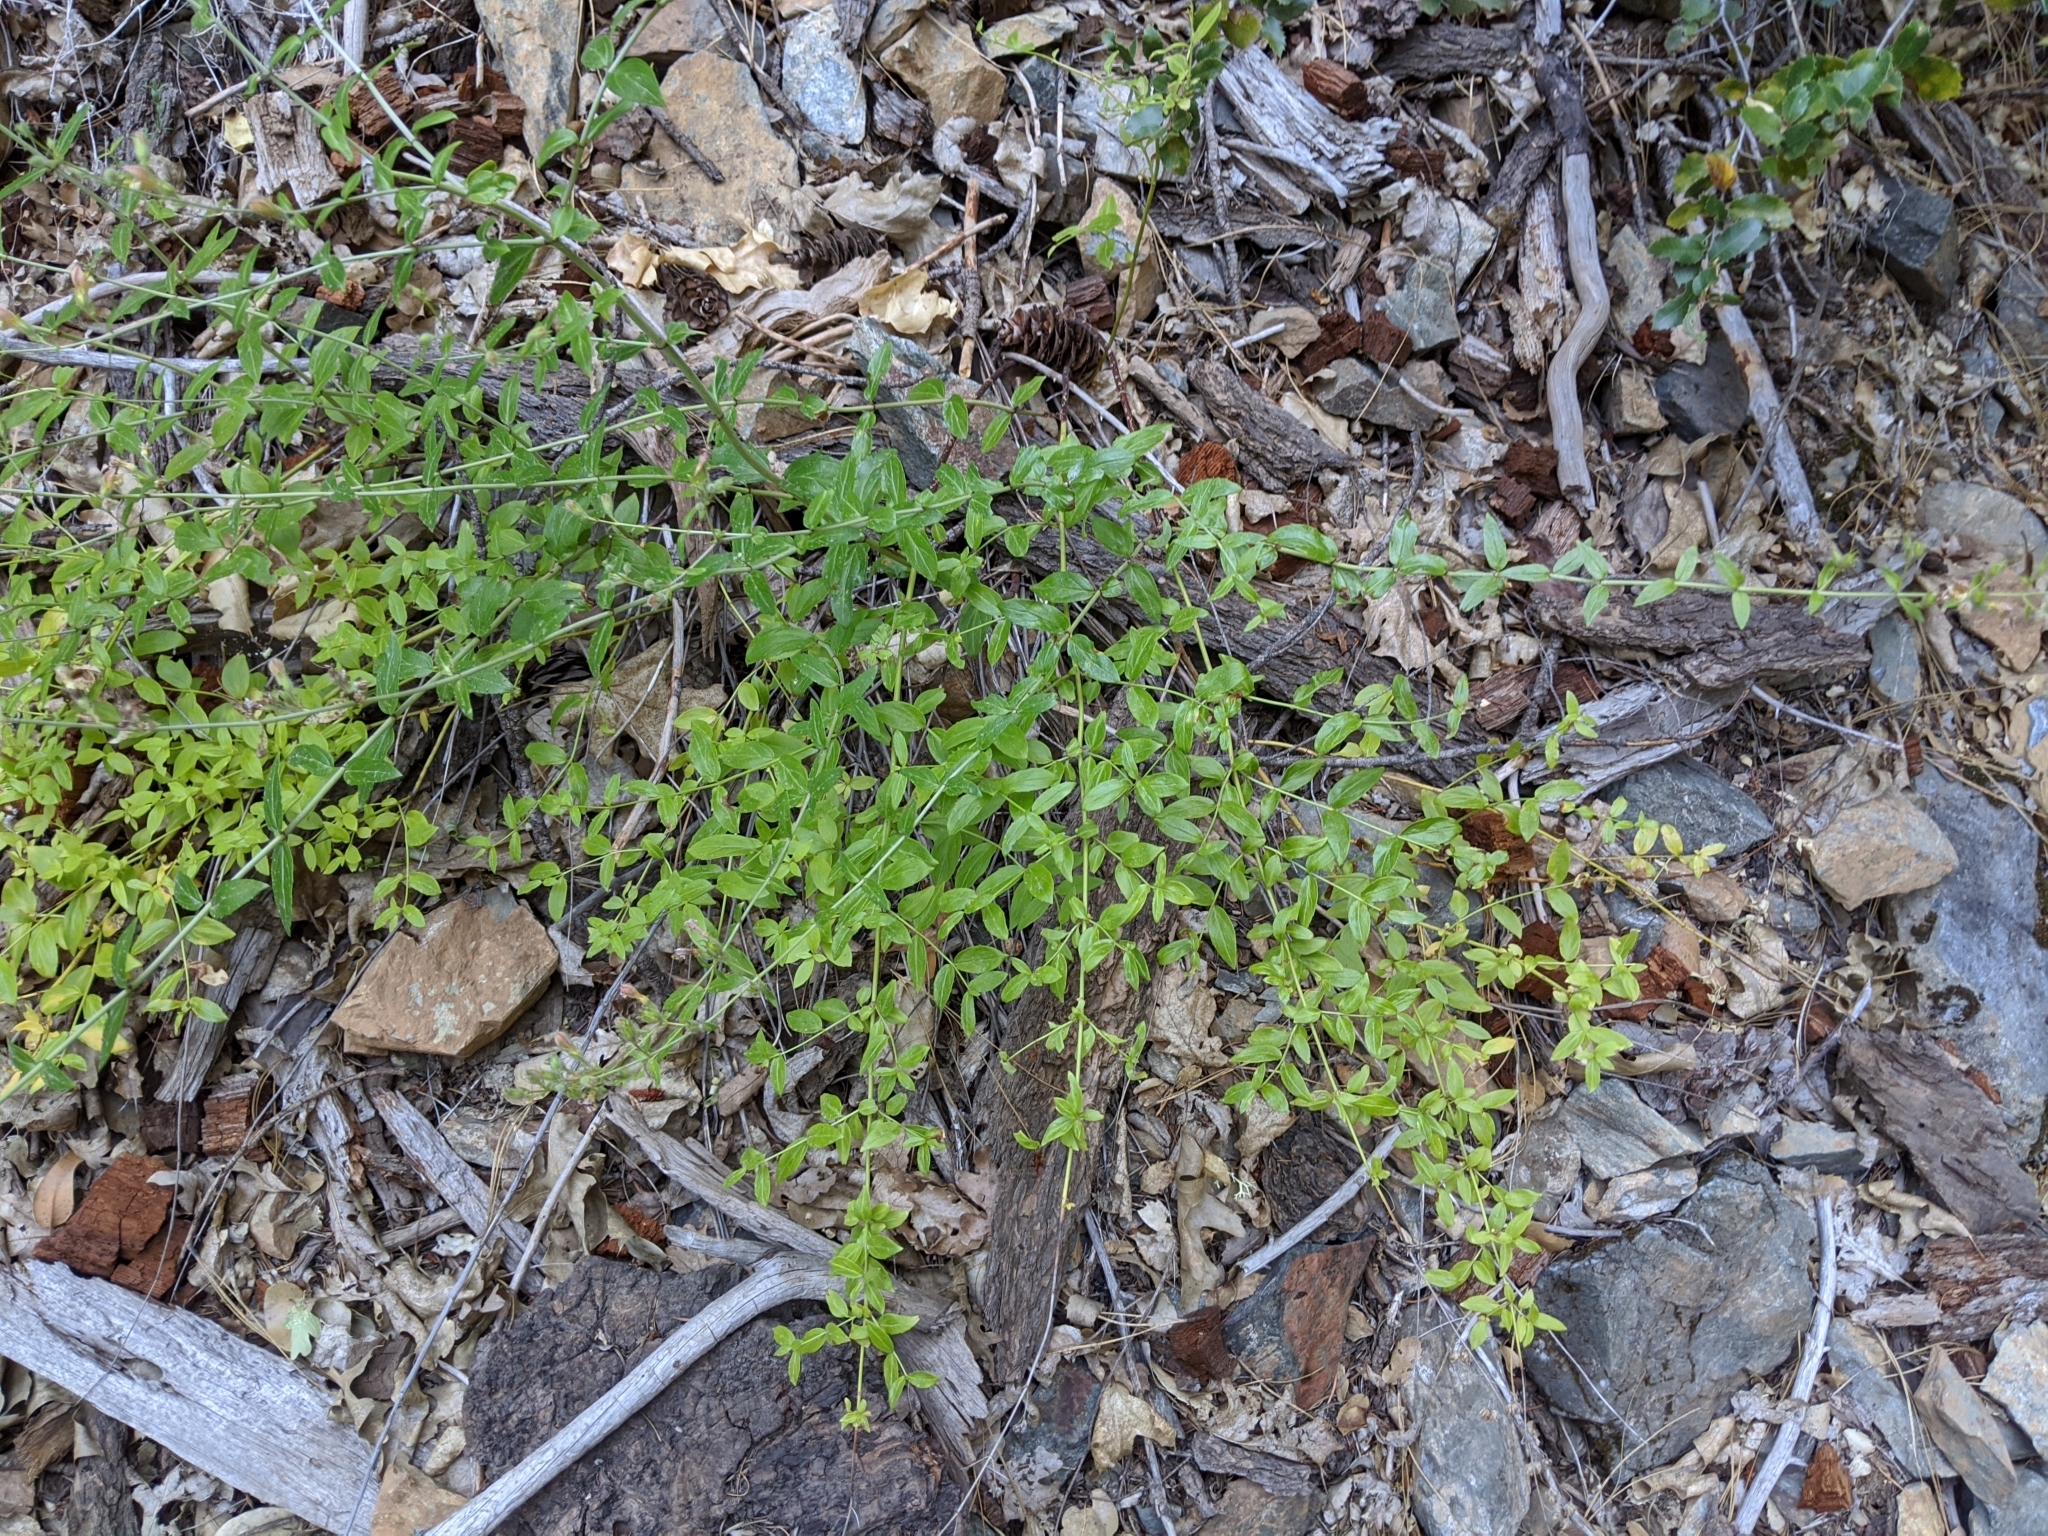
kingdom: Plantae
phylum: Tracheophyta
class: Magnoliopsida
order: Lamiales
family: Plantaginaceae
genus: Keckiella
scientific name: Keckiella lemmonii
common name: Lemmon's keckiella
